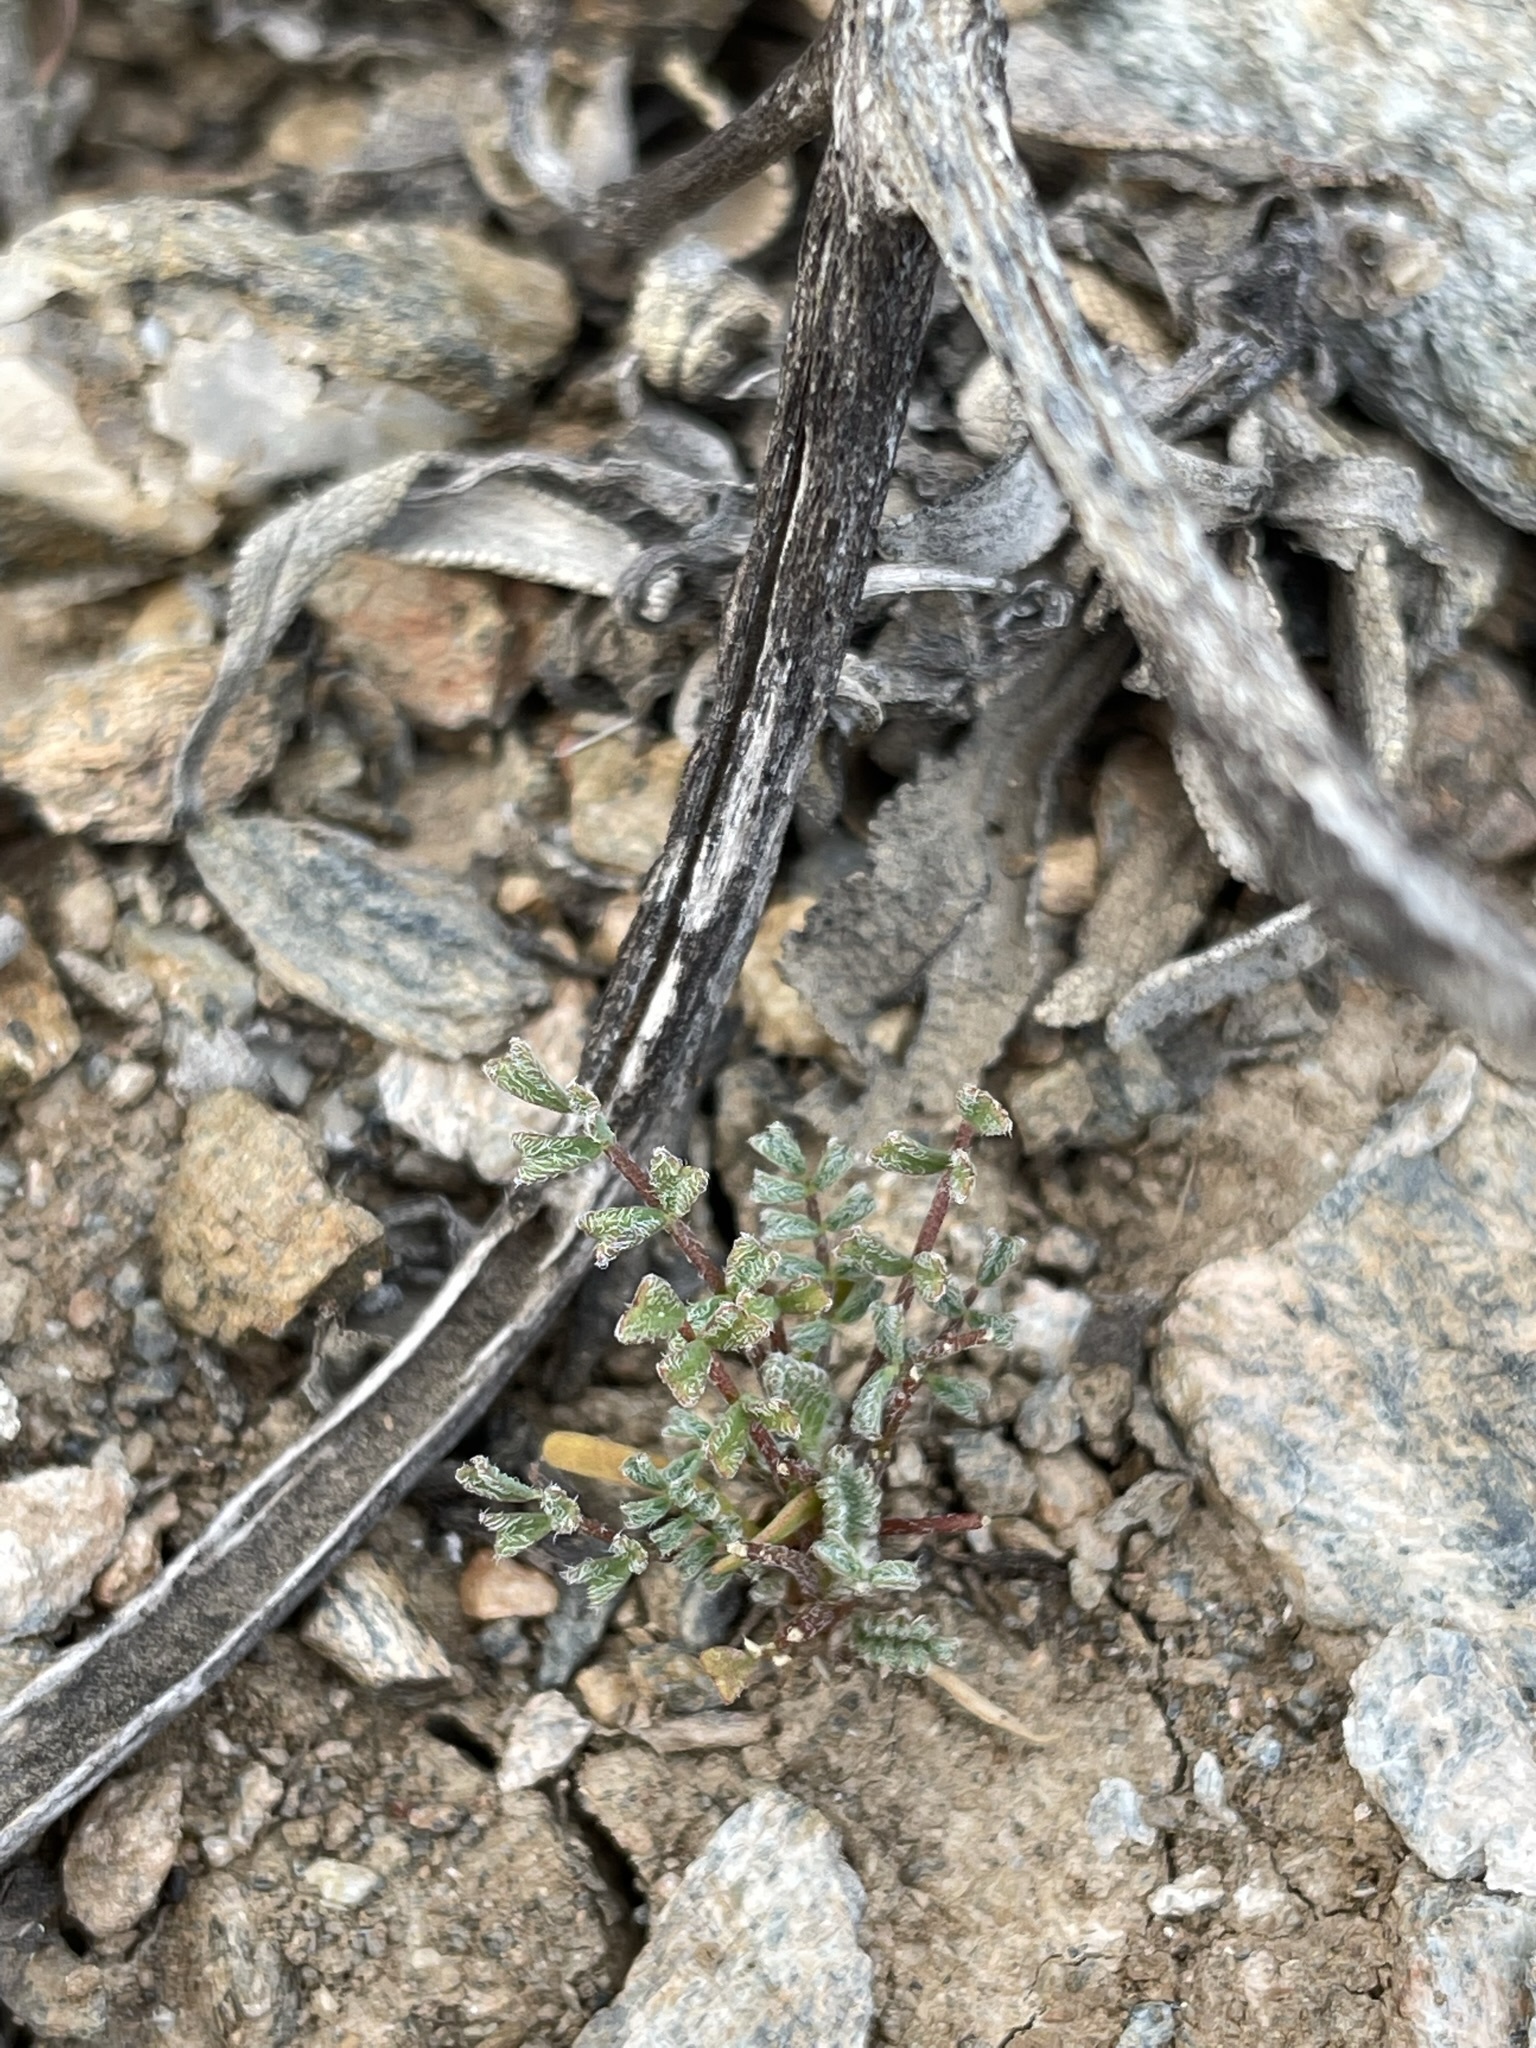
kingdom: Plantae
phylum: Tracheophyta
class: Magnoliopsida
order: Fabales
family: Fabaceae
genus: Astragalus
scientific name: Astragalus gambelianus
